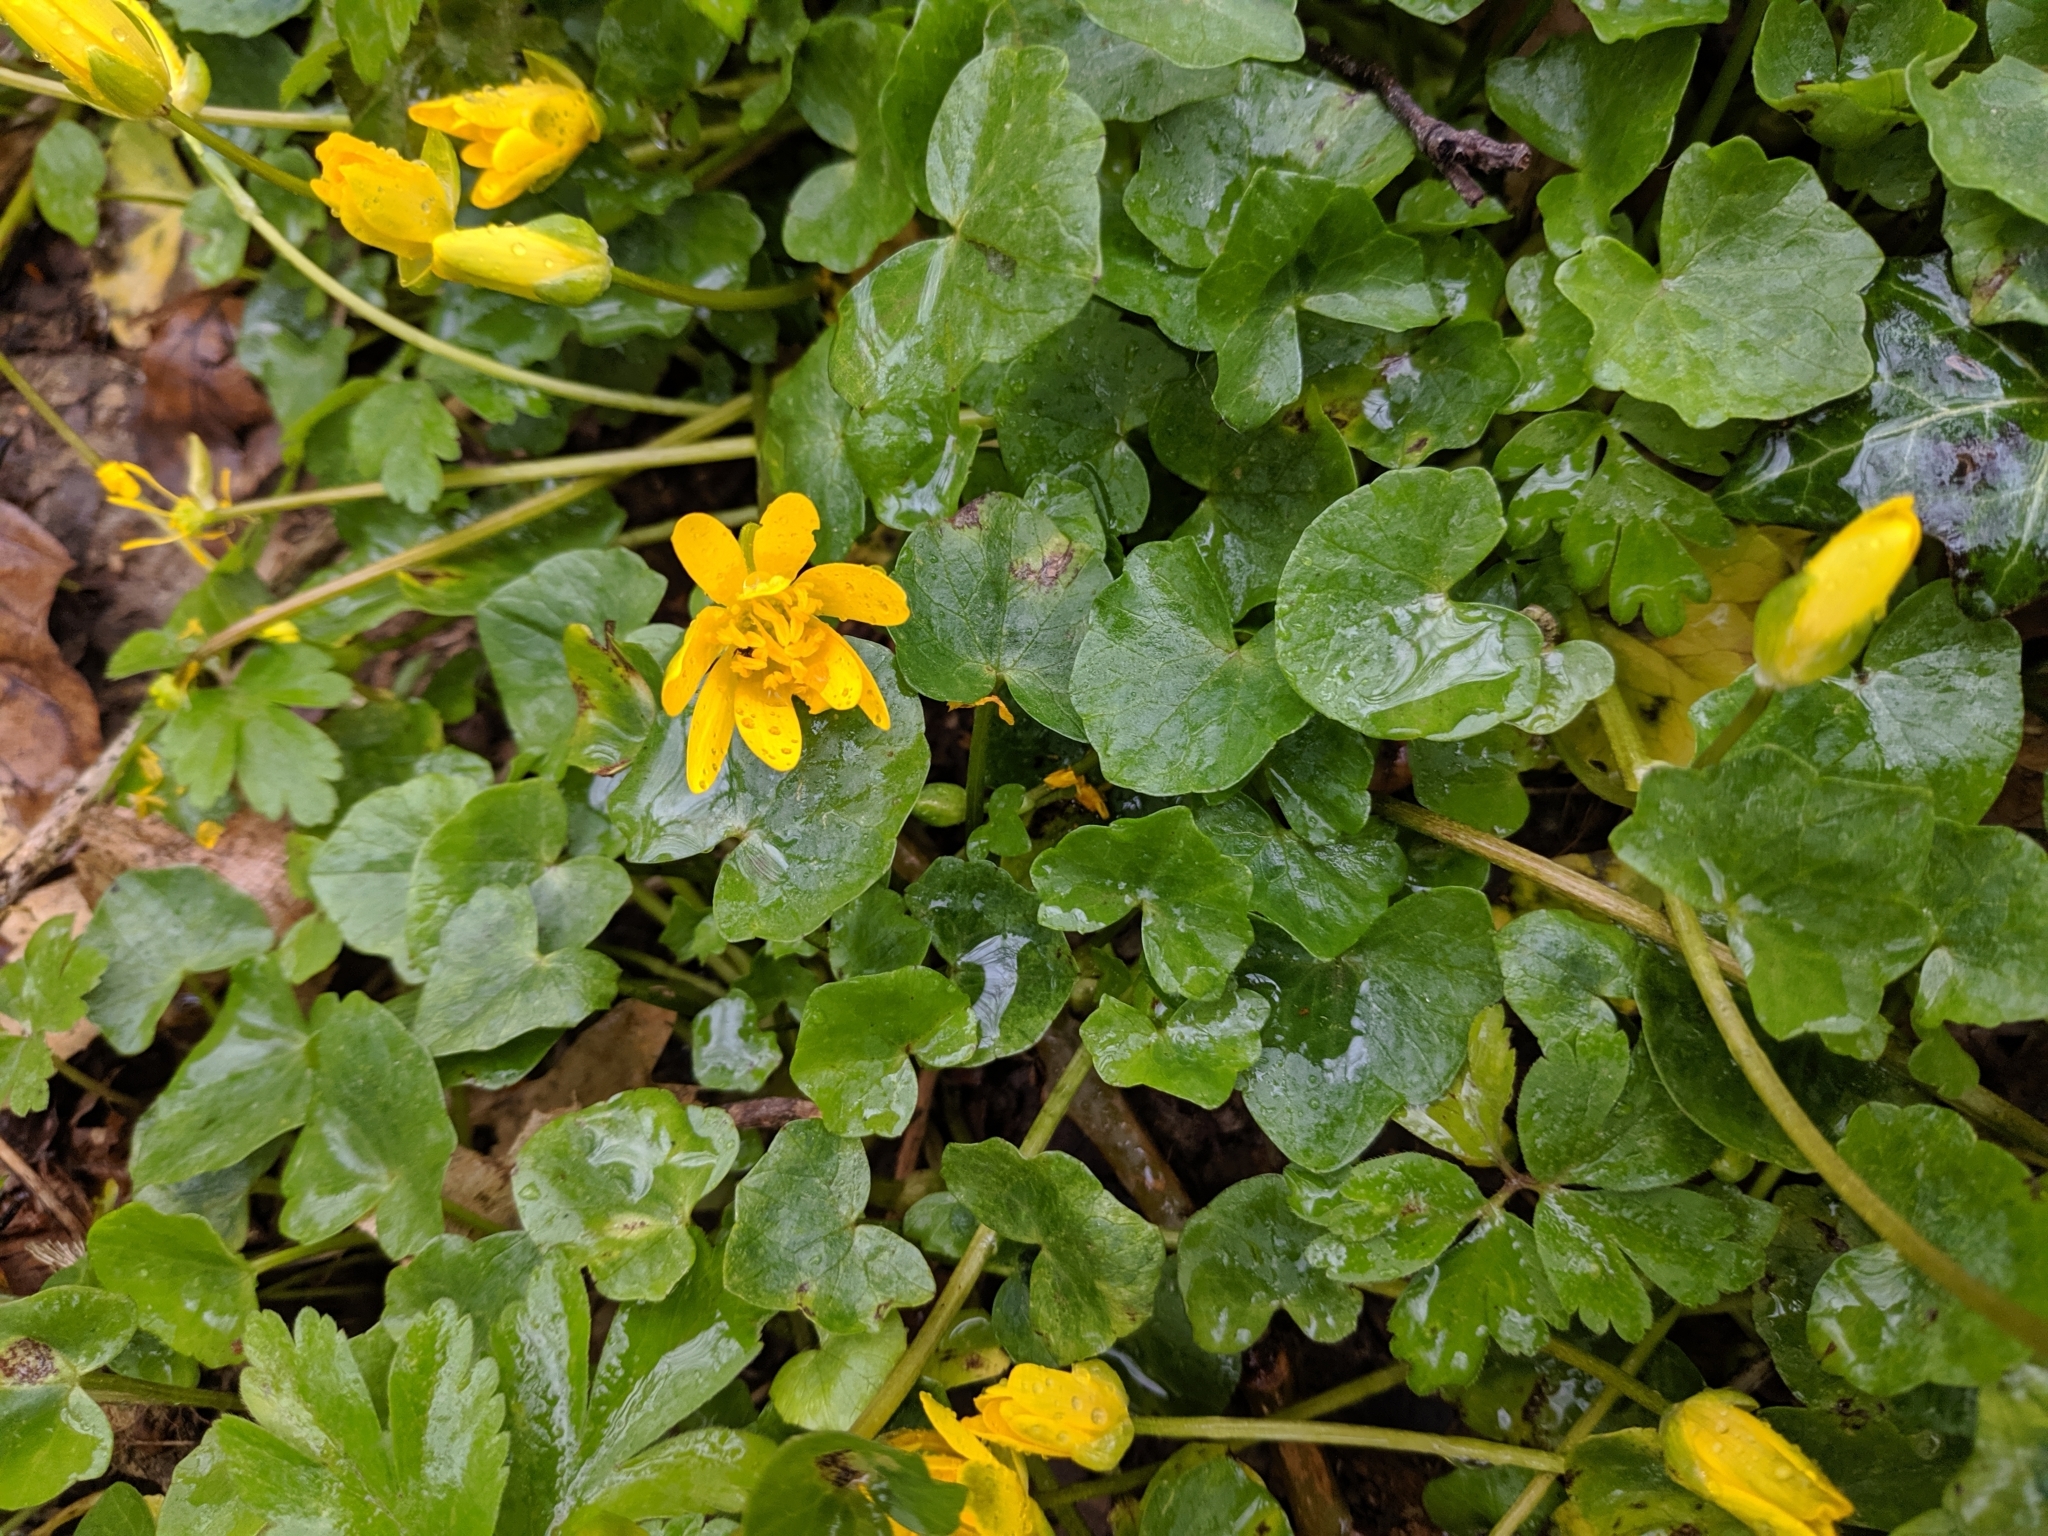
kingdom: Plantae
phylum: Tracheophyta
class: Magnoliopsida
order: Ranunculales
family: Ranunculaceae
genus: Ficaria
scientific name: Ficaria verna
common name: Lesser celandine
